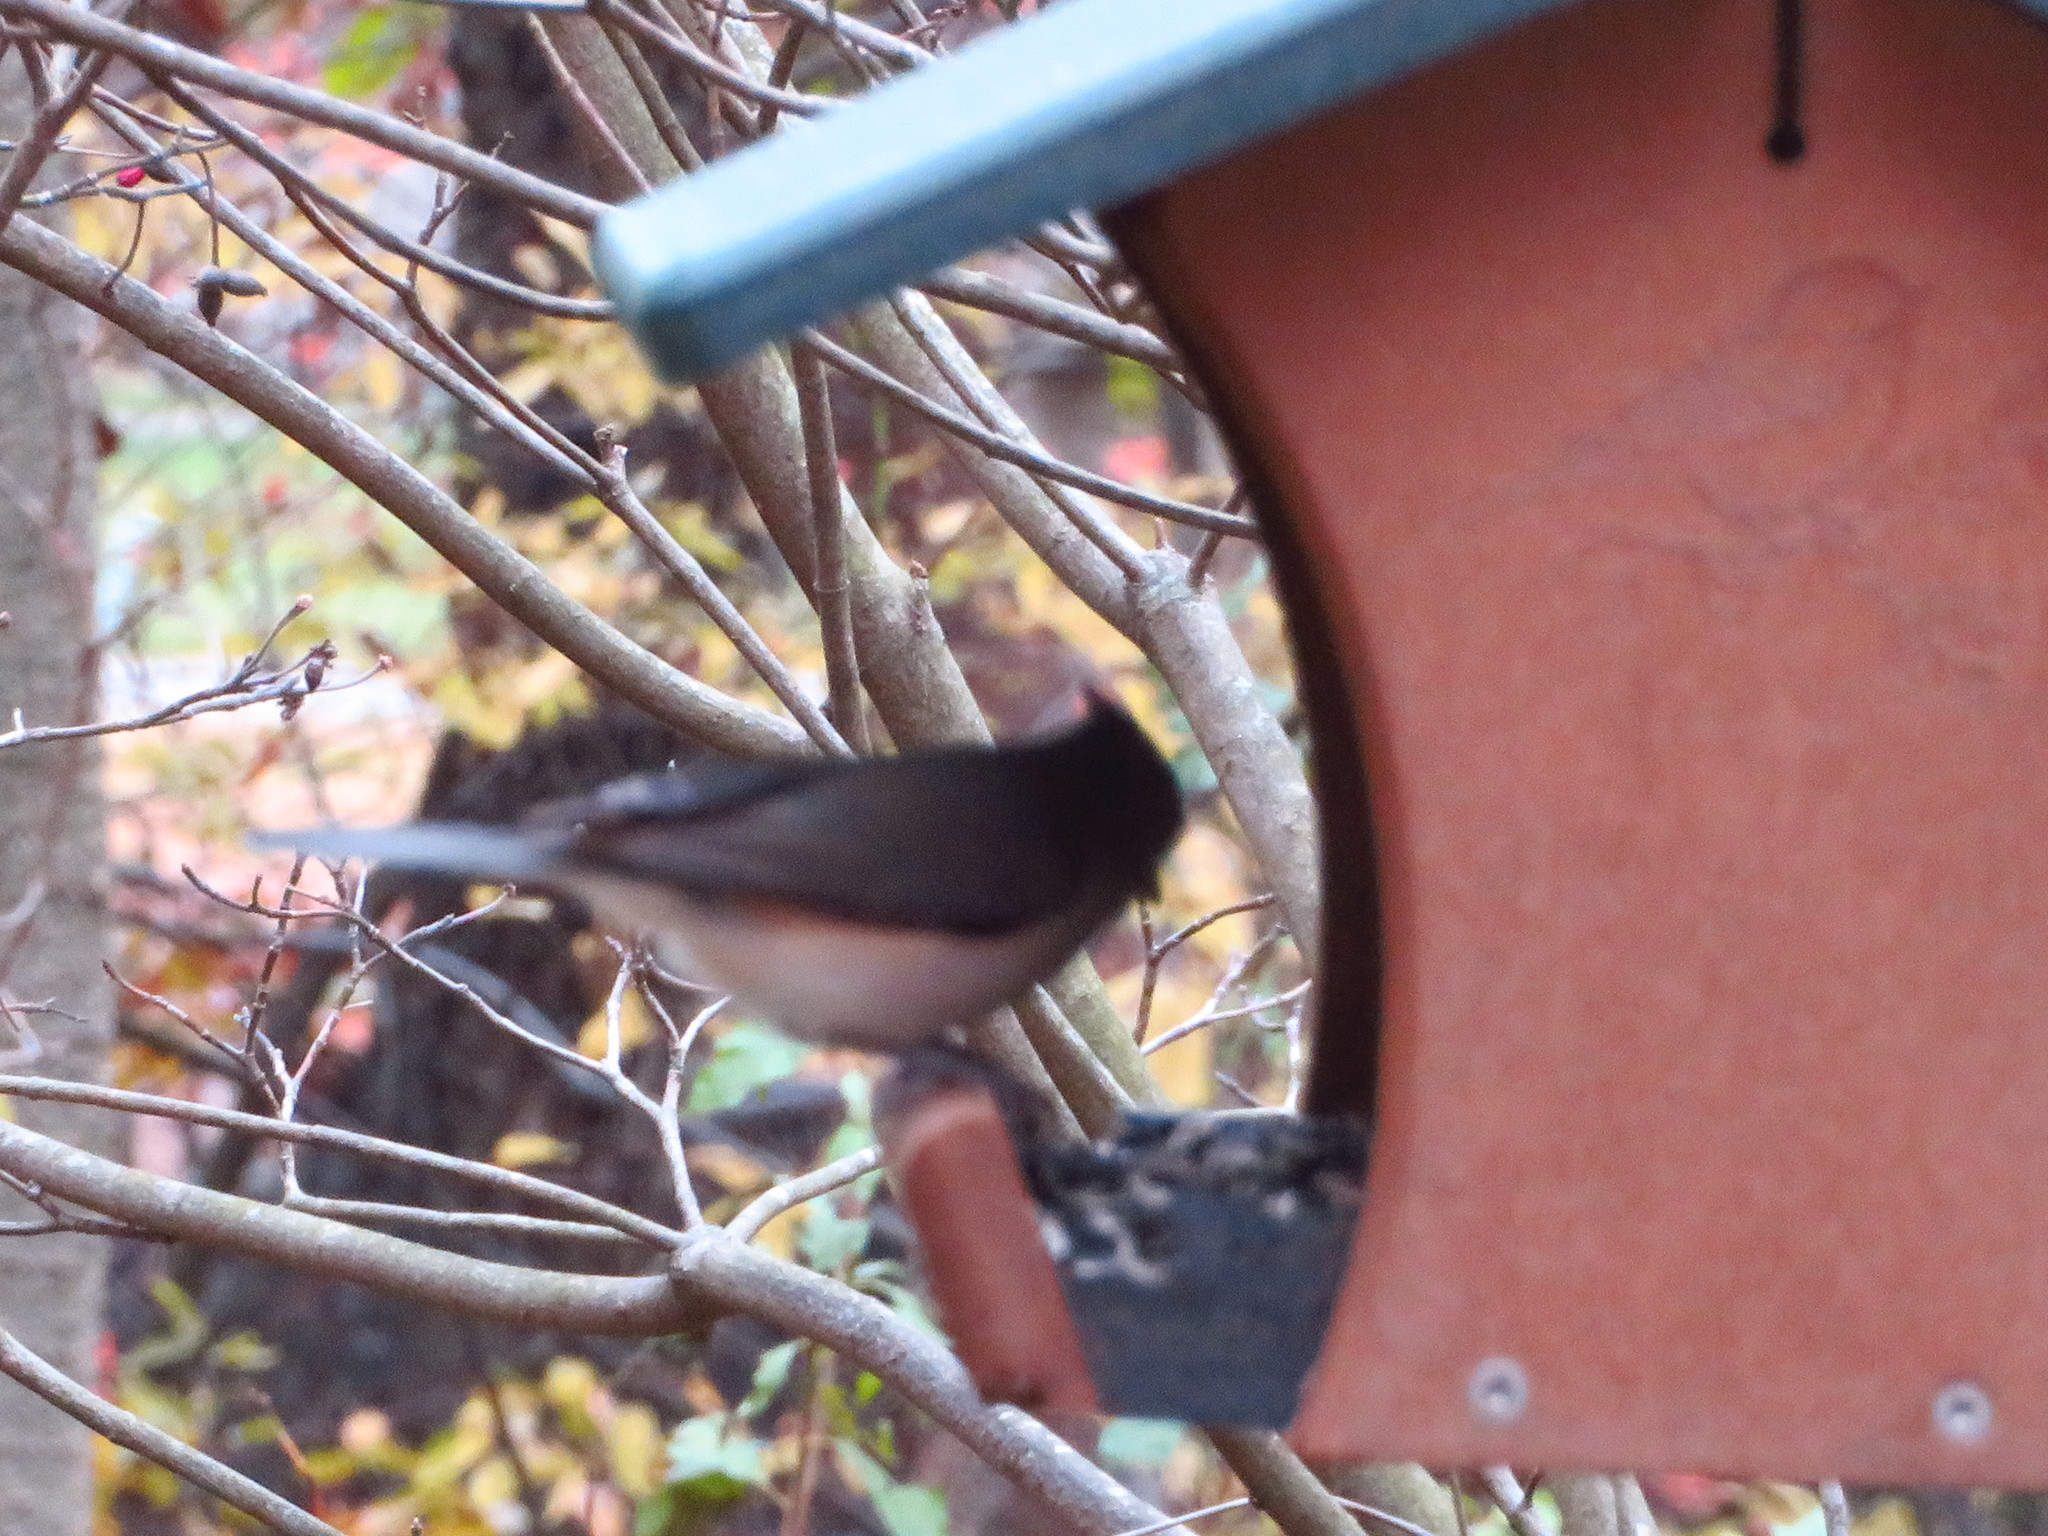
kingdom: Animalia
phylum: Chordata
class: Aves
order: Passeriformes
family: Paridae
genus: Baeolophus
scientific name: Baeolophus bicolor
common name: Tufted titmouse
